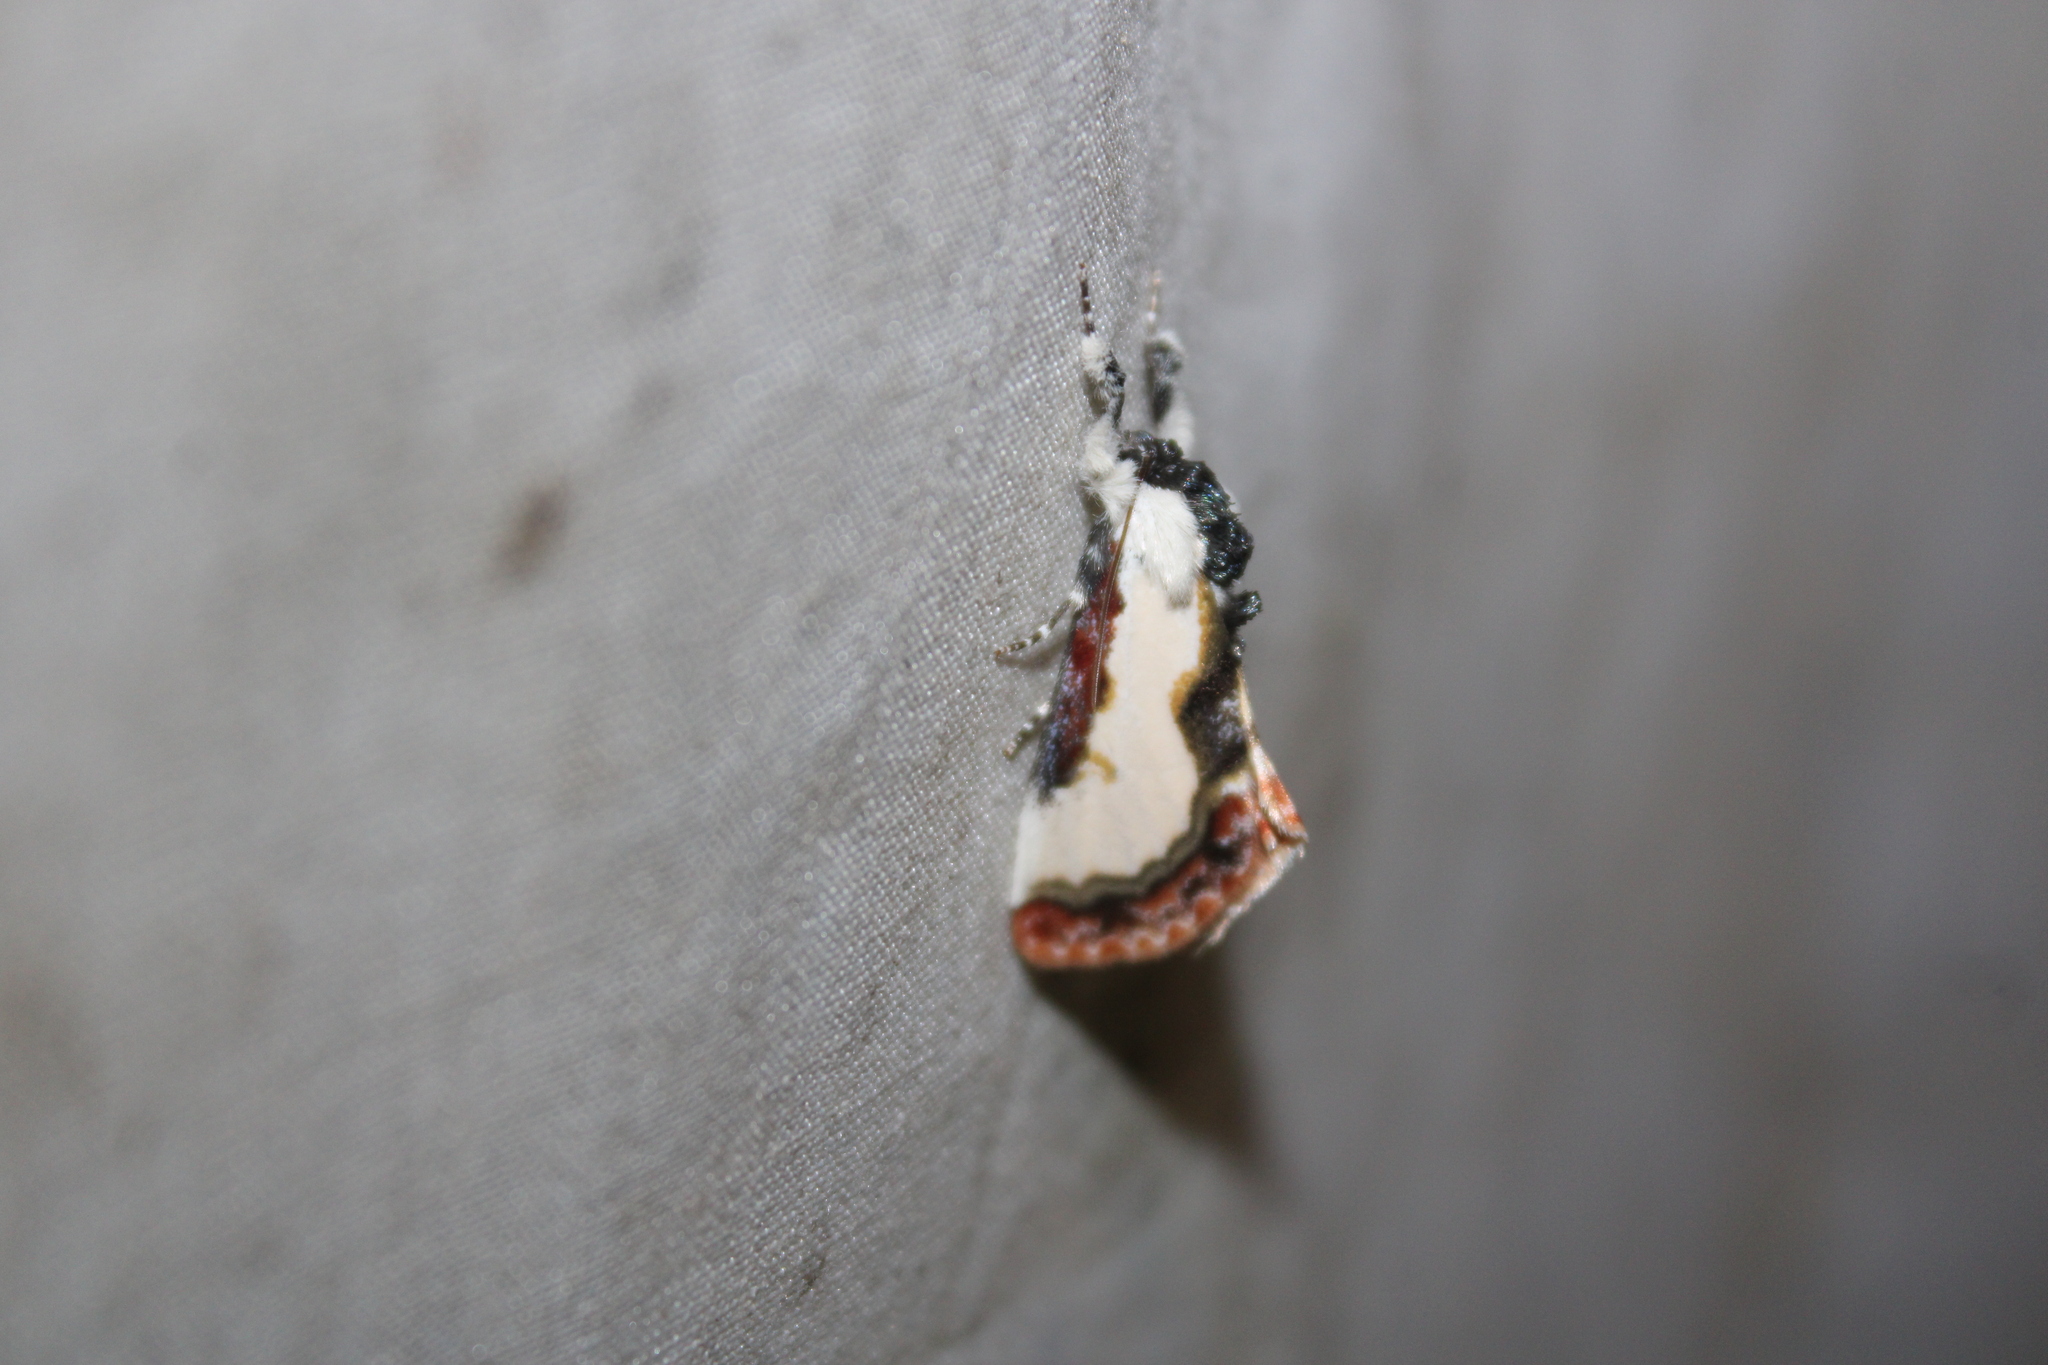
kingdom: Animalia
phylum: Arthropoda
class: Insecta
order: Lepidoptera
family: Noctuidae
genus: Eudryas
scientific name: Eudryas unio
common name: Pearly wood-nymph
